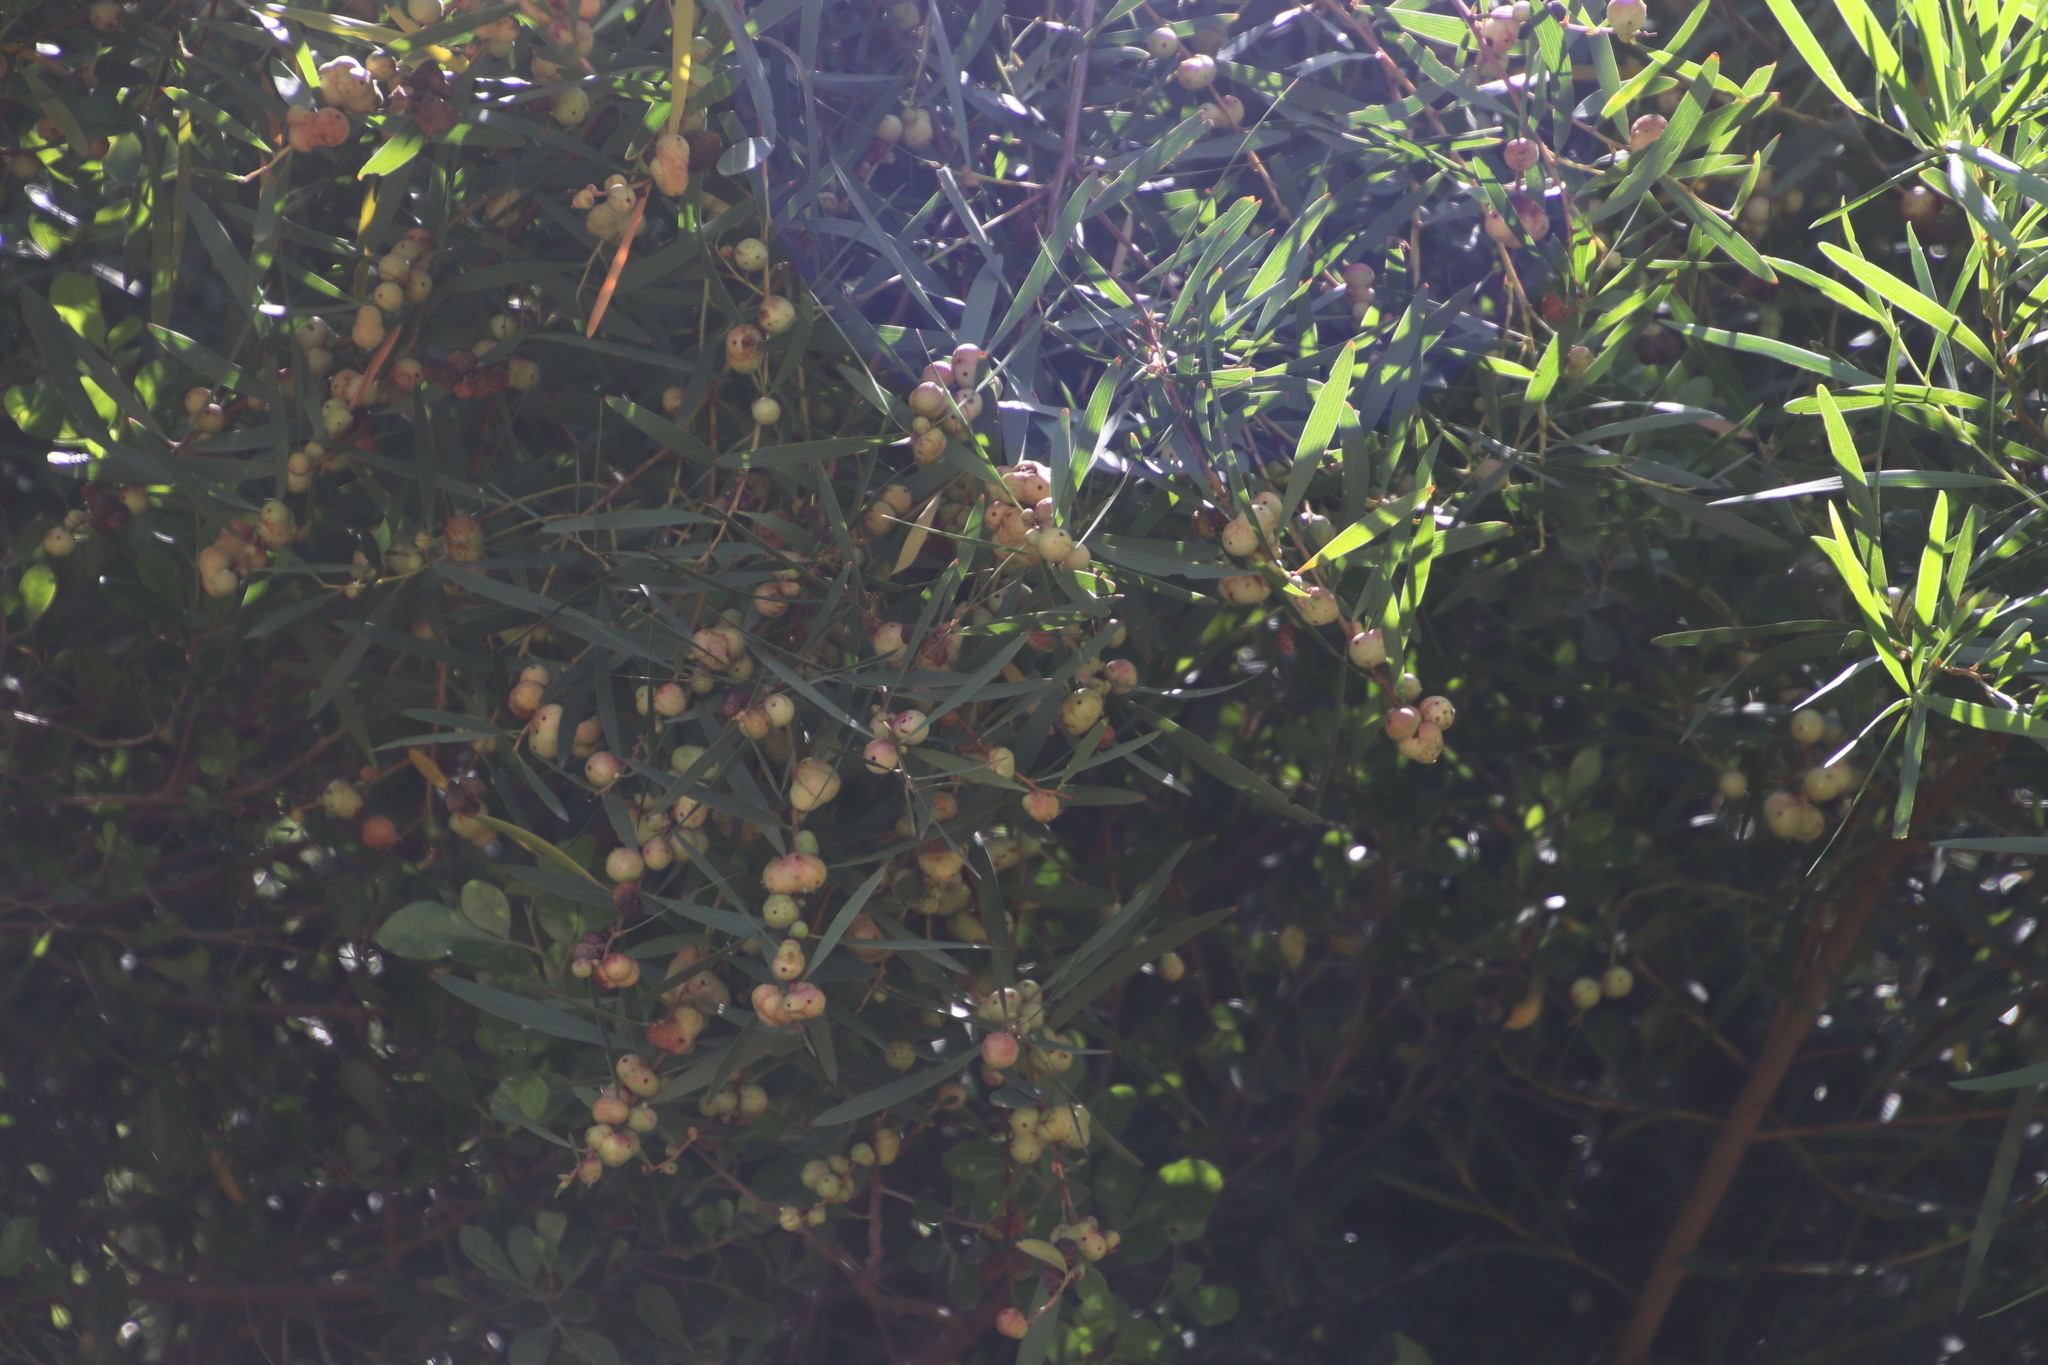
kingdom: Plantae
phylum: Tracheophyta
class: Magnoliopsida
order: Fabales
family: Fabaceae
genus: Acacia
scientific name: Acacia longifolia
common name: Sydney golden wattle
